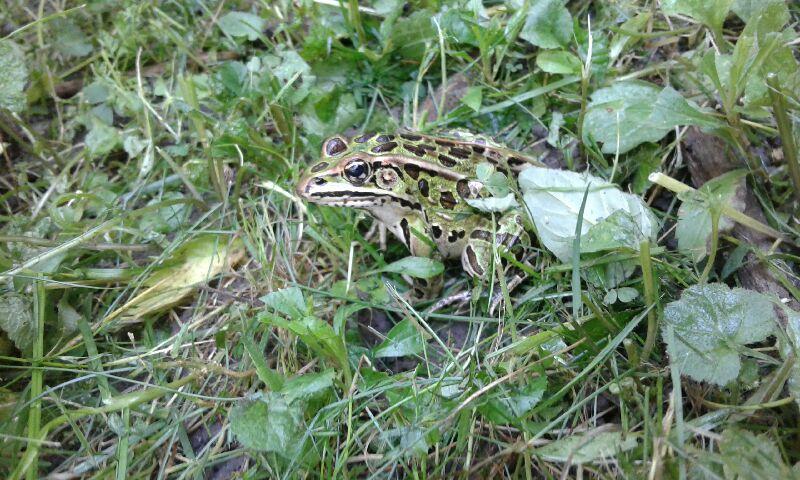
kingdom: Animalia
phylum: Chordata
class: Amphibia
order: Anura
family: Ranidae
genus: Lithobates
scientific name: Lithobates pipiens
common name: Northern leopard frog
